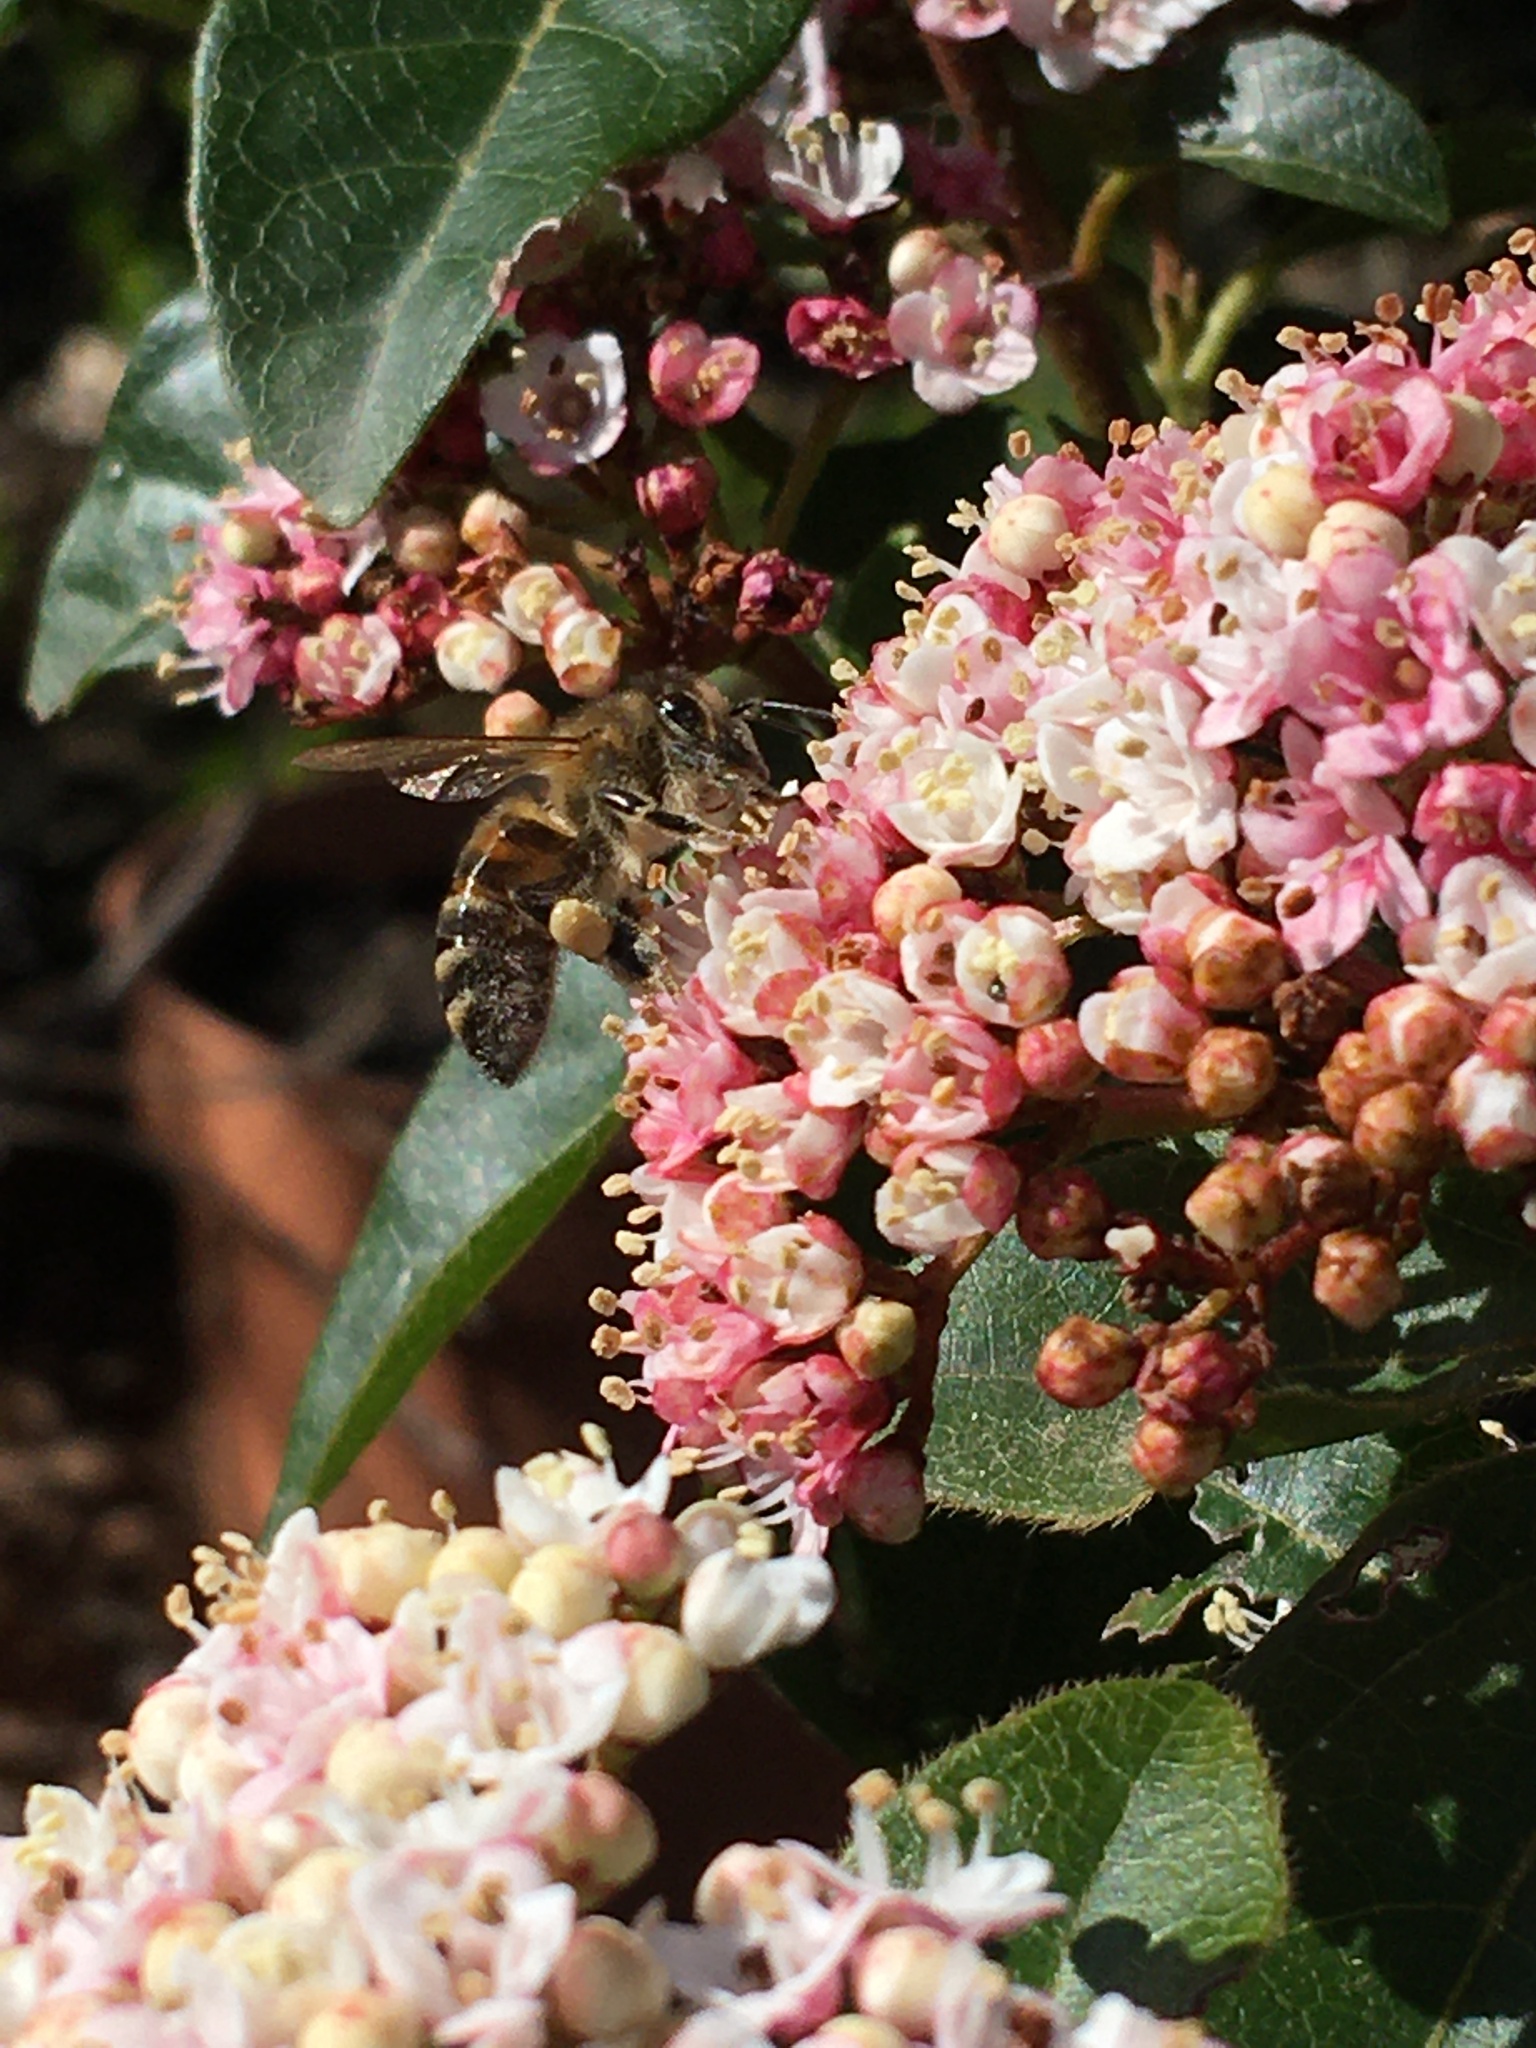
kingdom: Animalia
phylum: Arthropoda
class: Insecta
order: Hymenoptera
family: Apidae
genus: Apis
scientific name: Apis mellifera
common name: Honey bee
